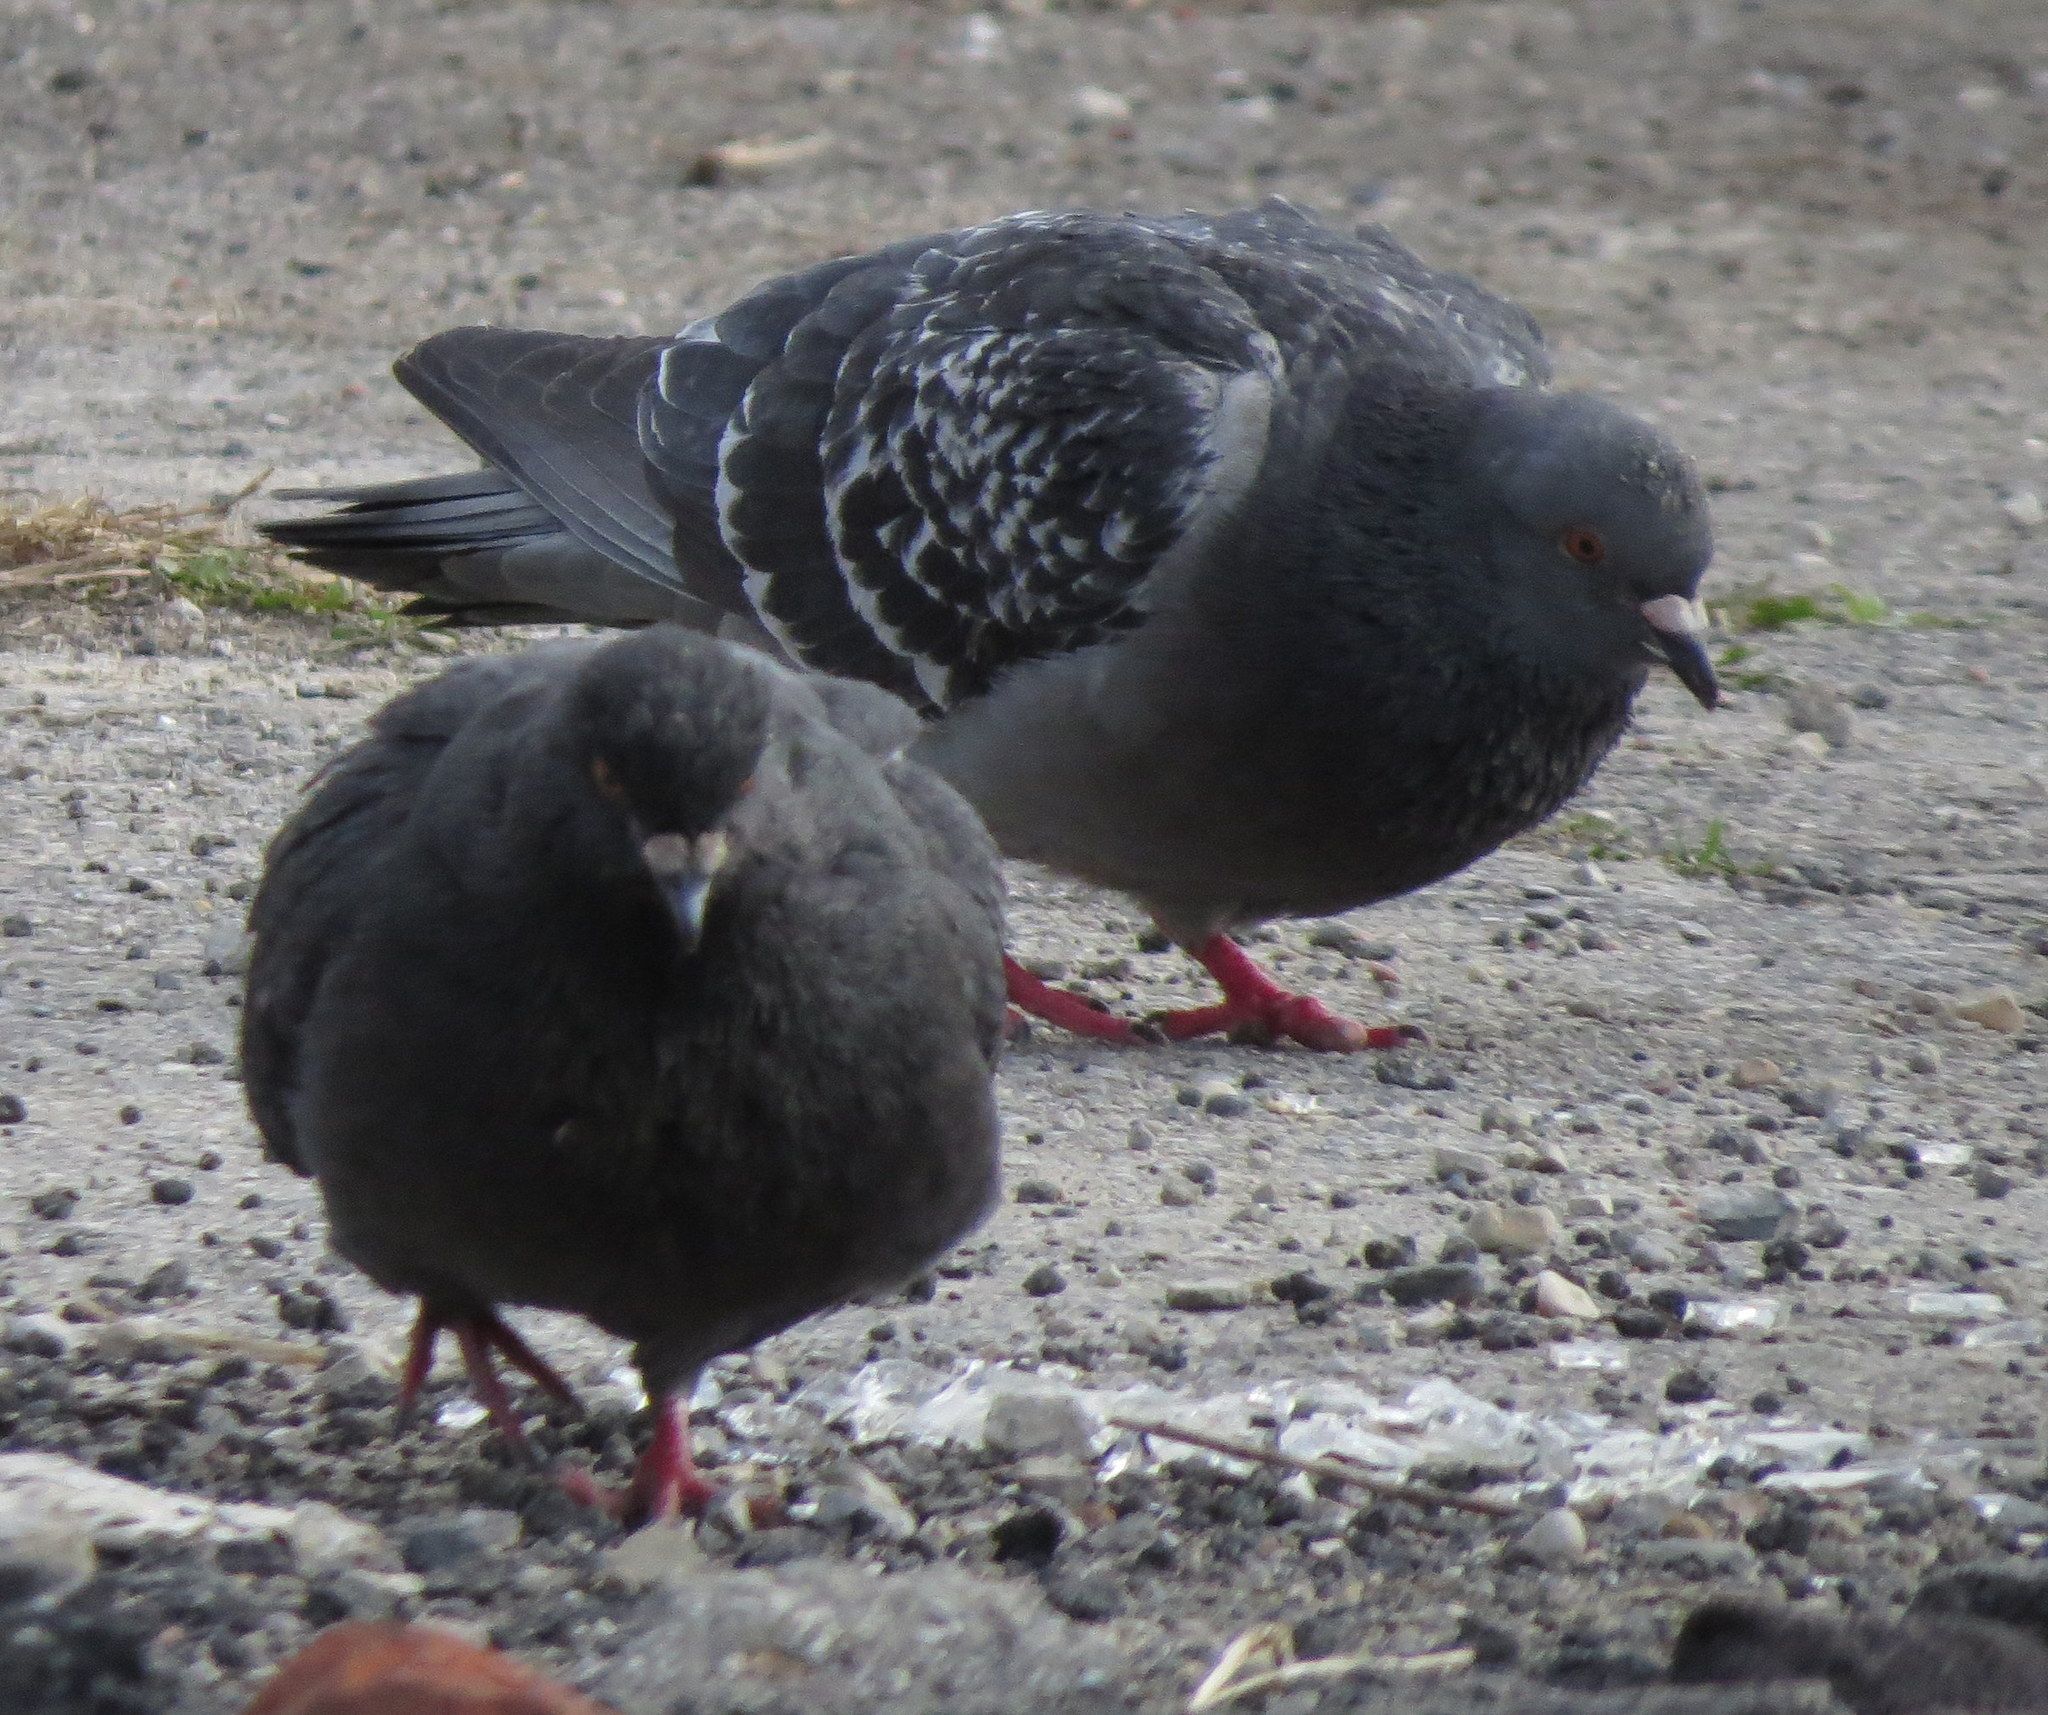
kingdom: Animalia
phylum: Chordata
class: Aves
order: Columbiformes
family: Columbidae
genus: Columba
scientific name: Columba livia
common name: Rock pigeon
